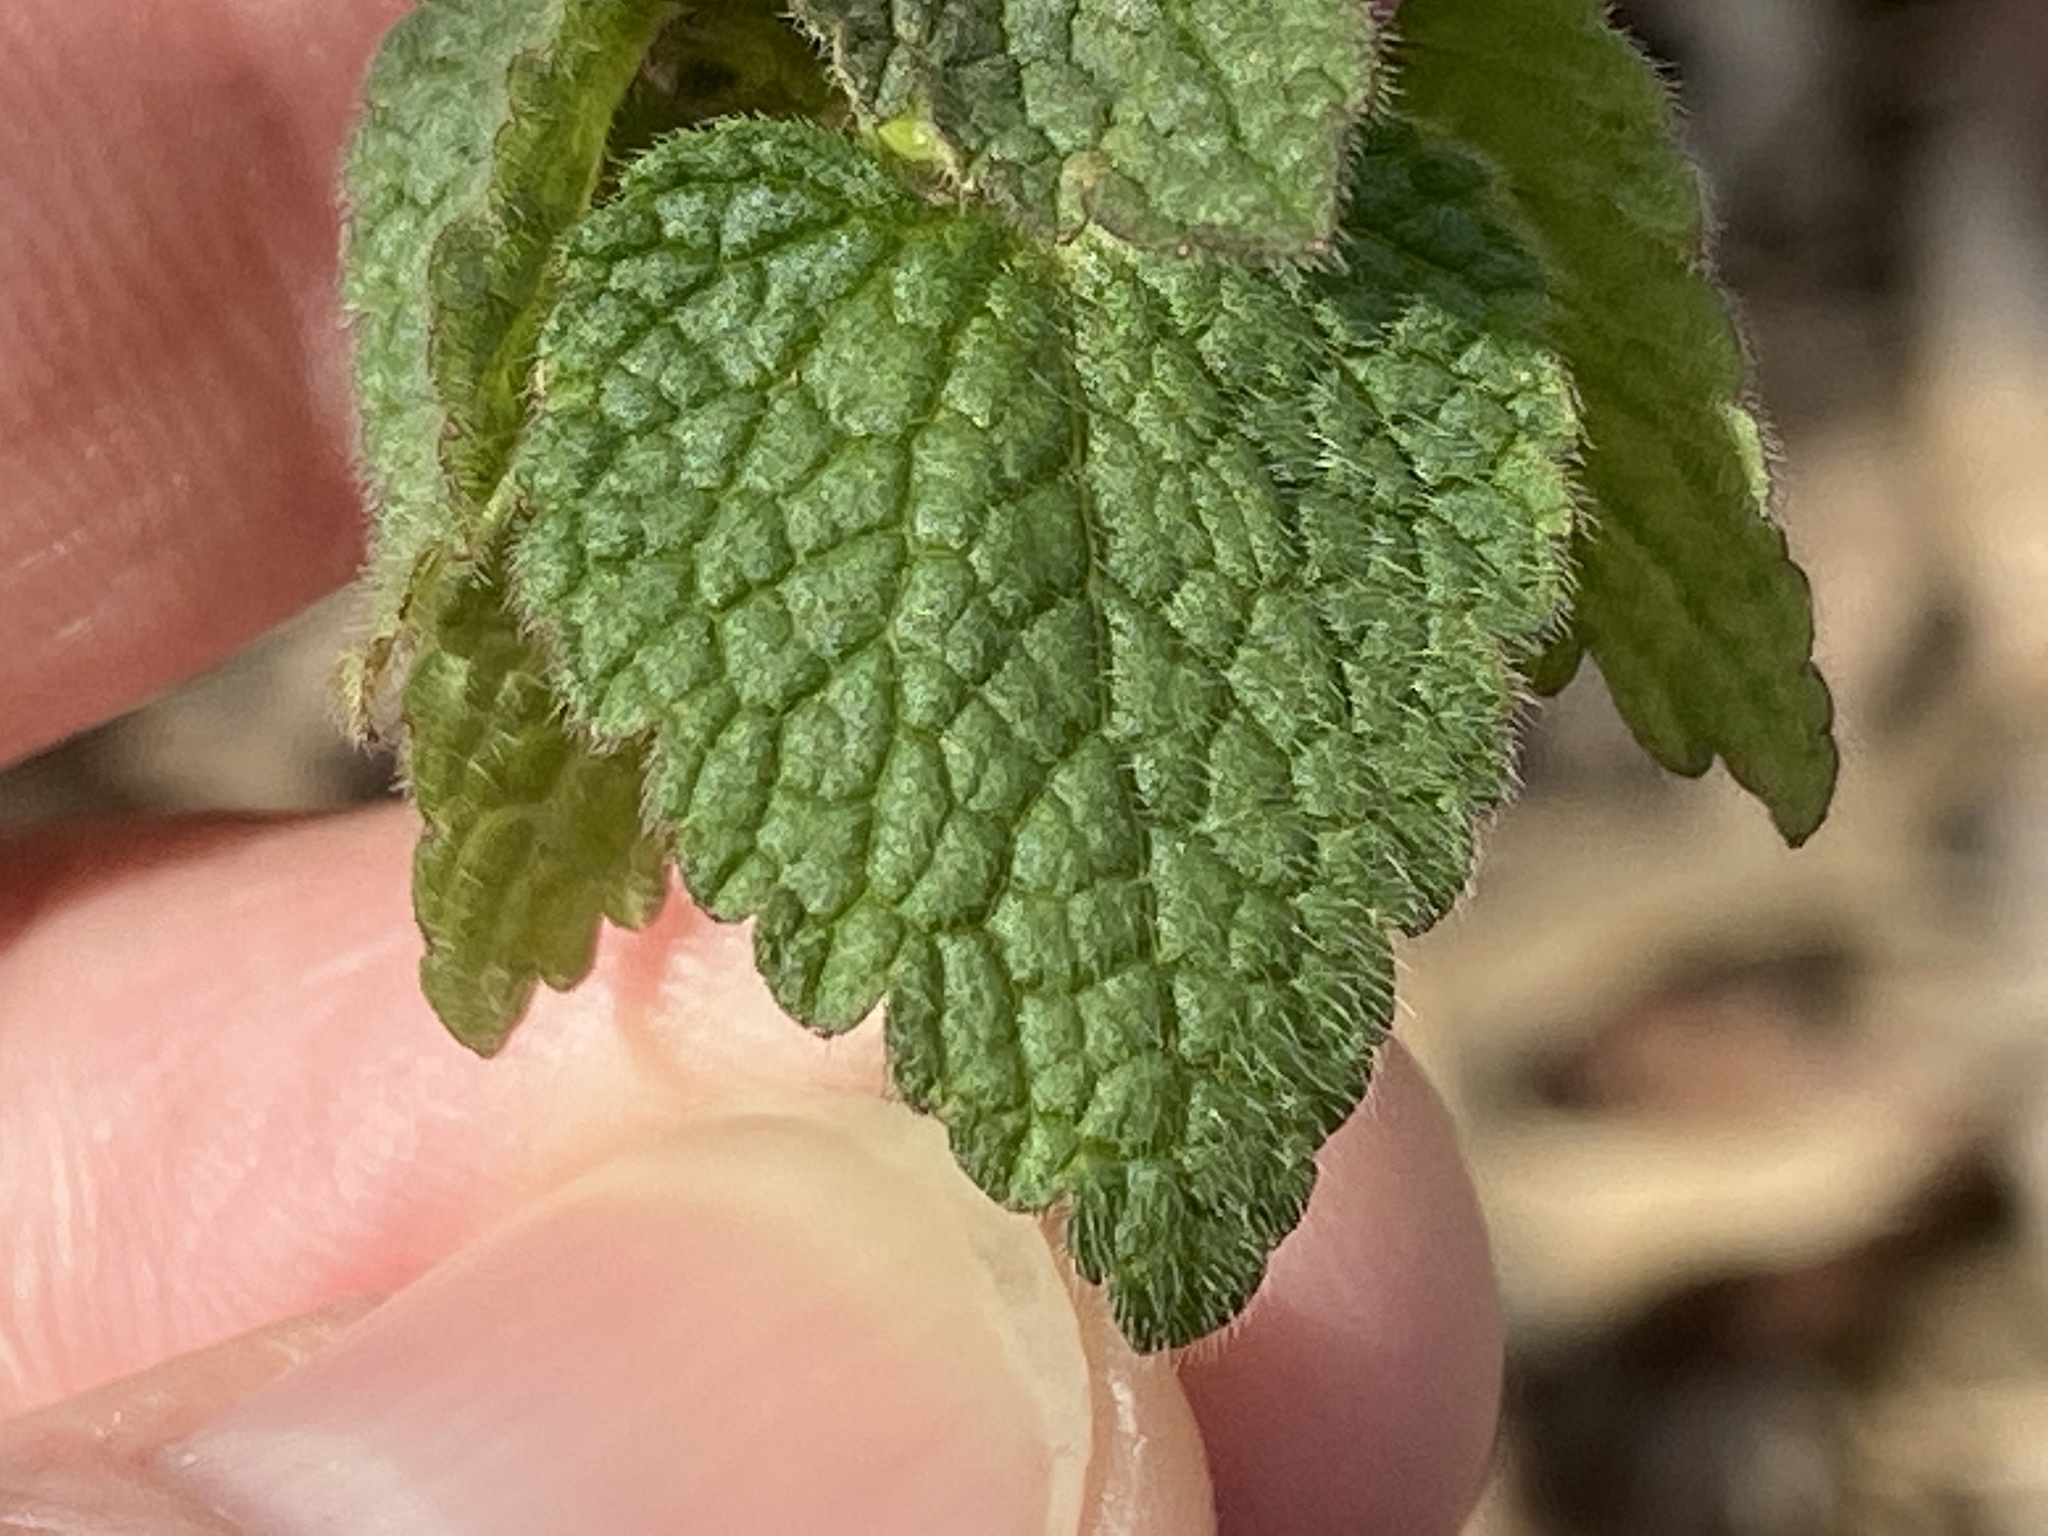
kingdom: Plantae
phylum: Tracheophyta
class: Magnoliopsida
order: Lamiales
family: Lamiaceae
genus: Lamium
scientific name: Lamium purpureum
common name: Red dead-nettle
